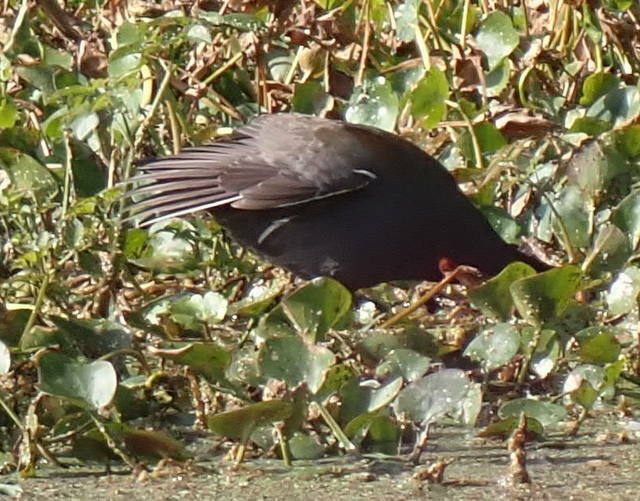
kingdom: Animalia
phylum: Chordata
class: Aves
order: Gruiformes
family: Rallidae
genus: Gallinula
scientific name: Gallinula chloropus
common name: Common moorhen
